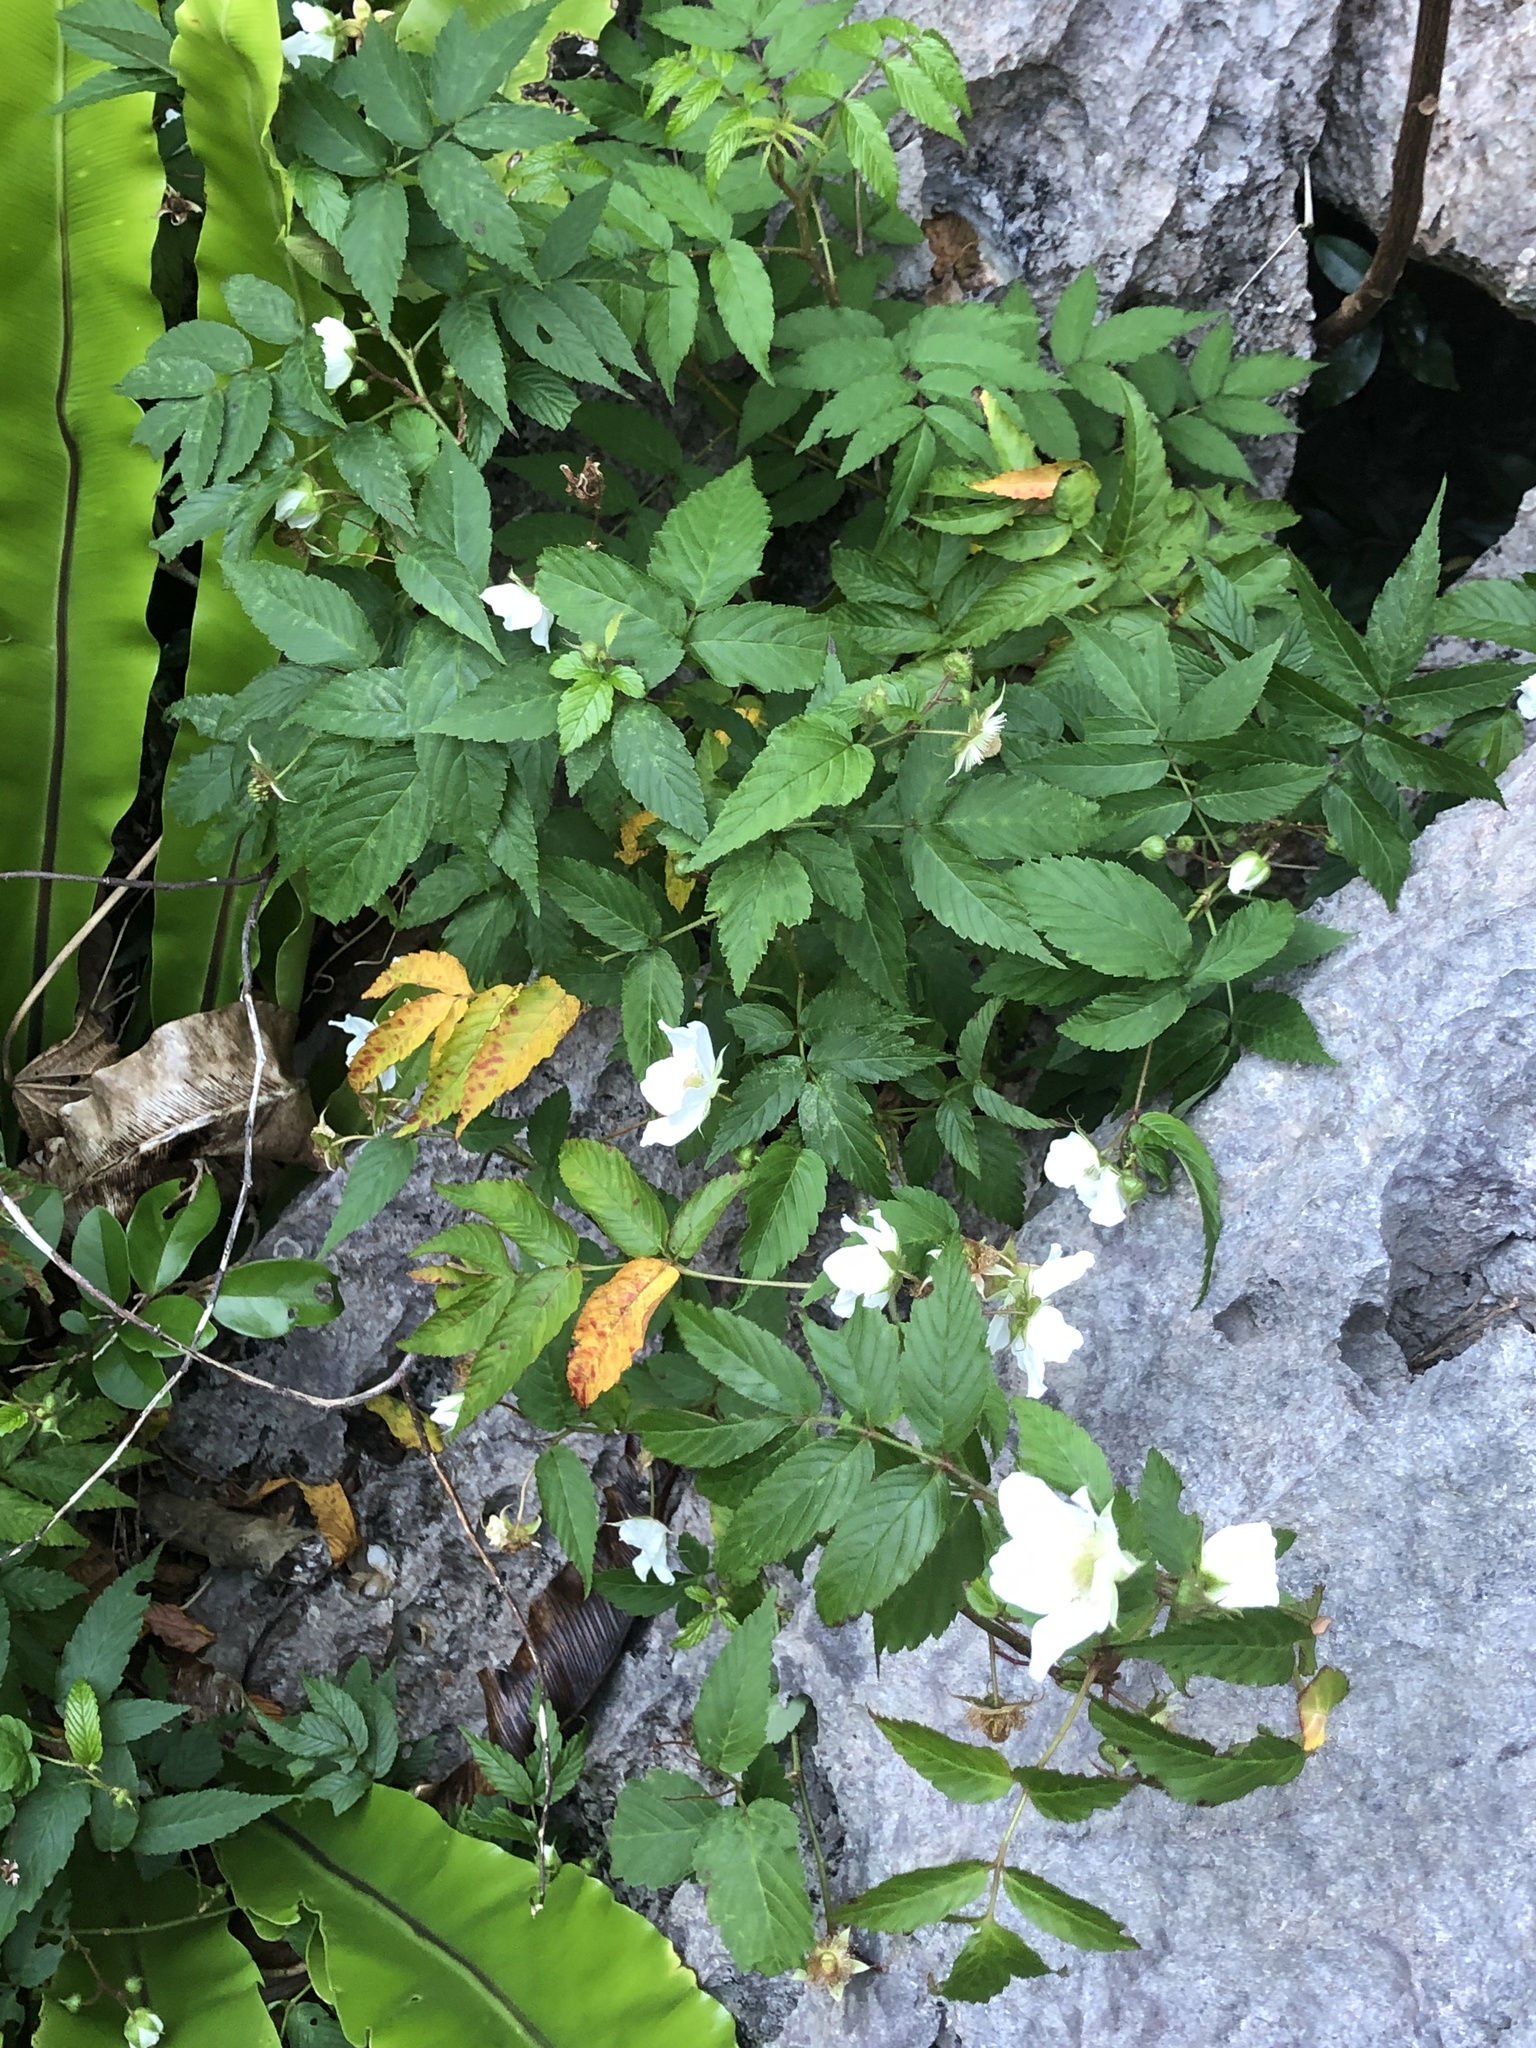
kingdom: Plantae
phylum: Tracheophyta
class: Magnoliopsida
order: Rosales
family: Rosaceae
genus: Rubus
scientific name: Rubus okinawensis
